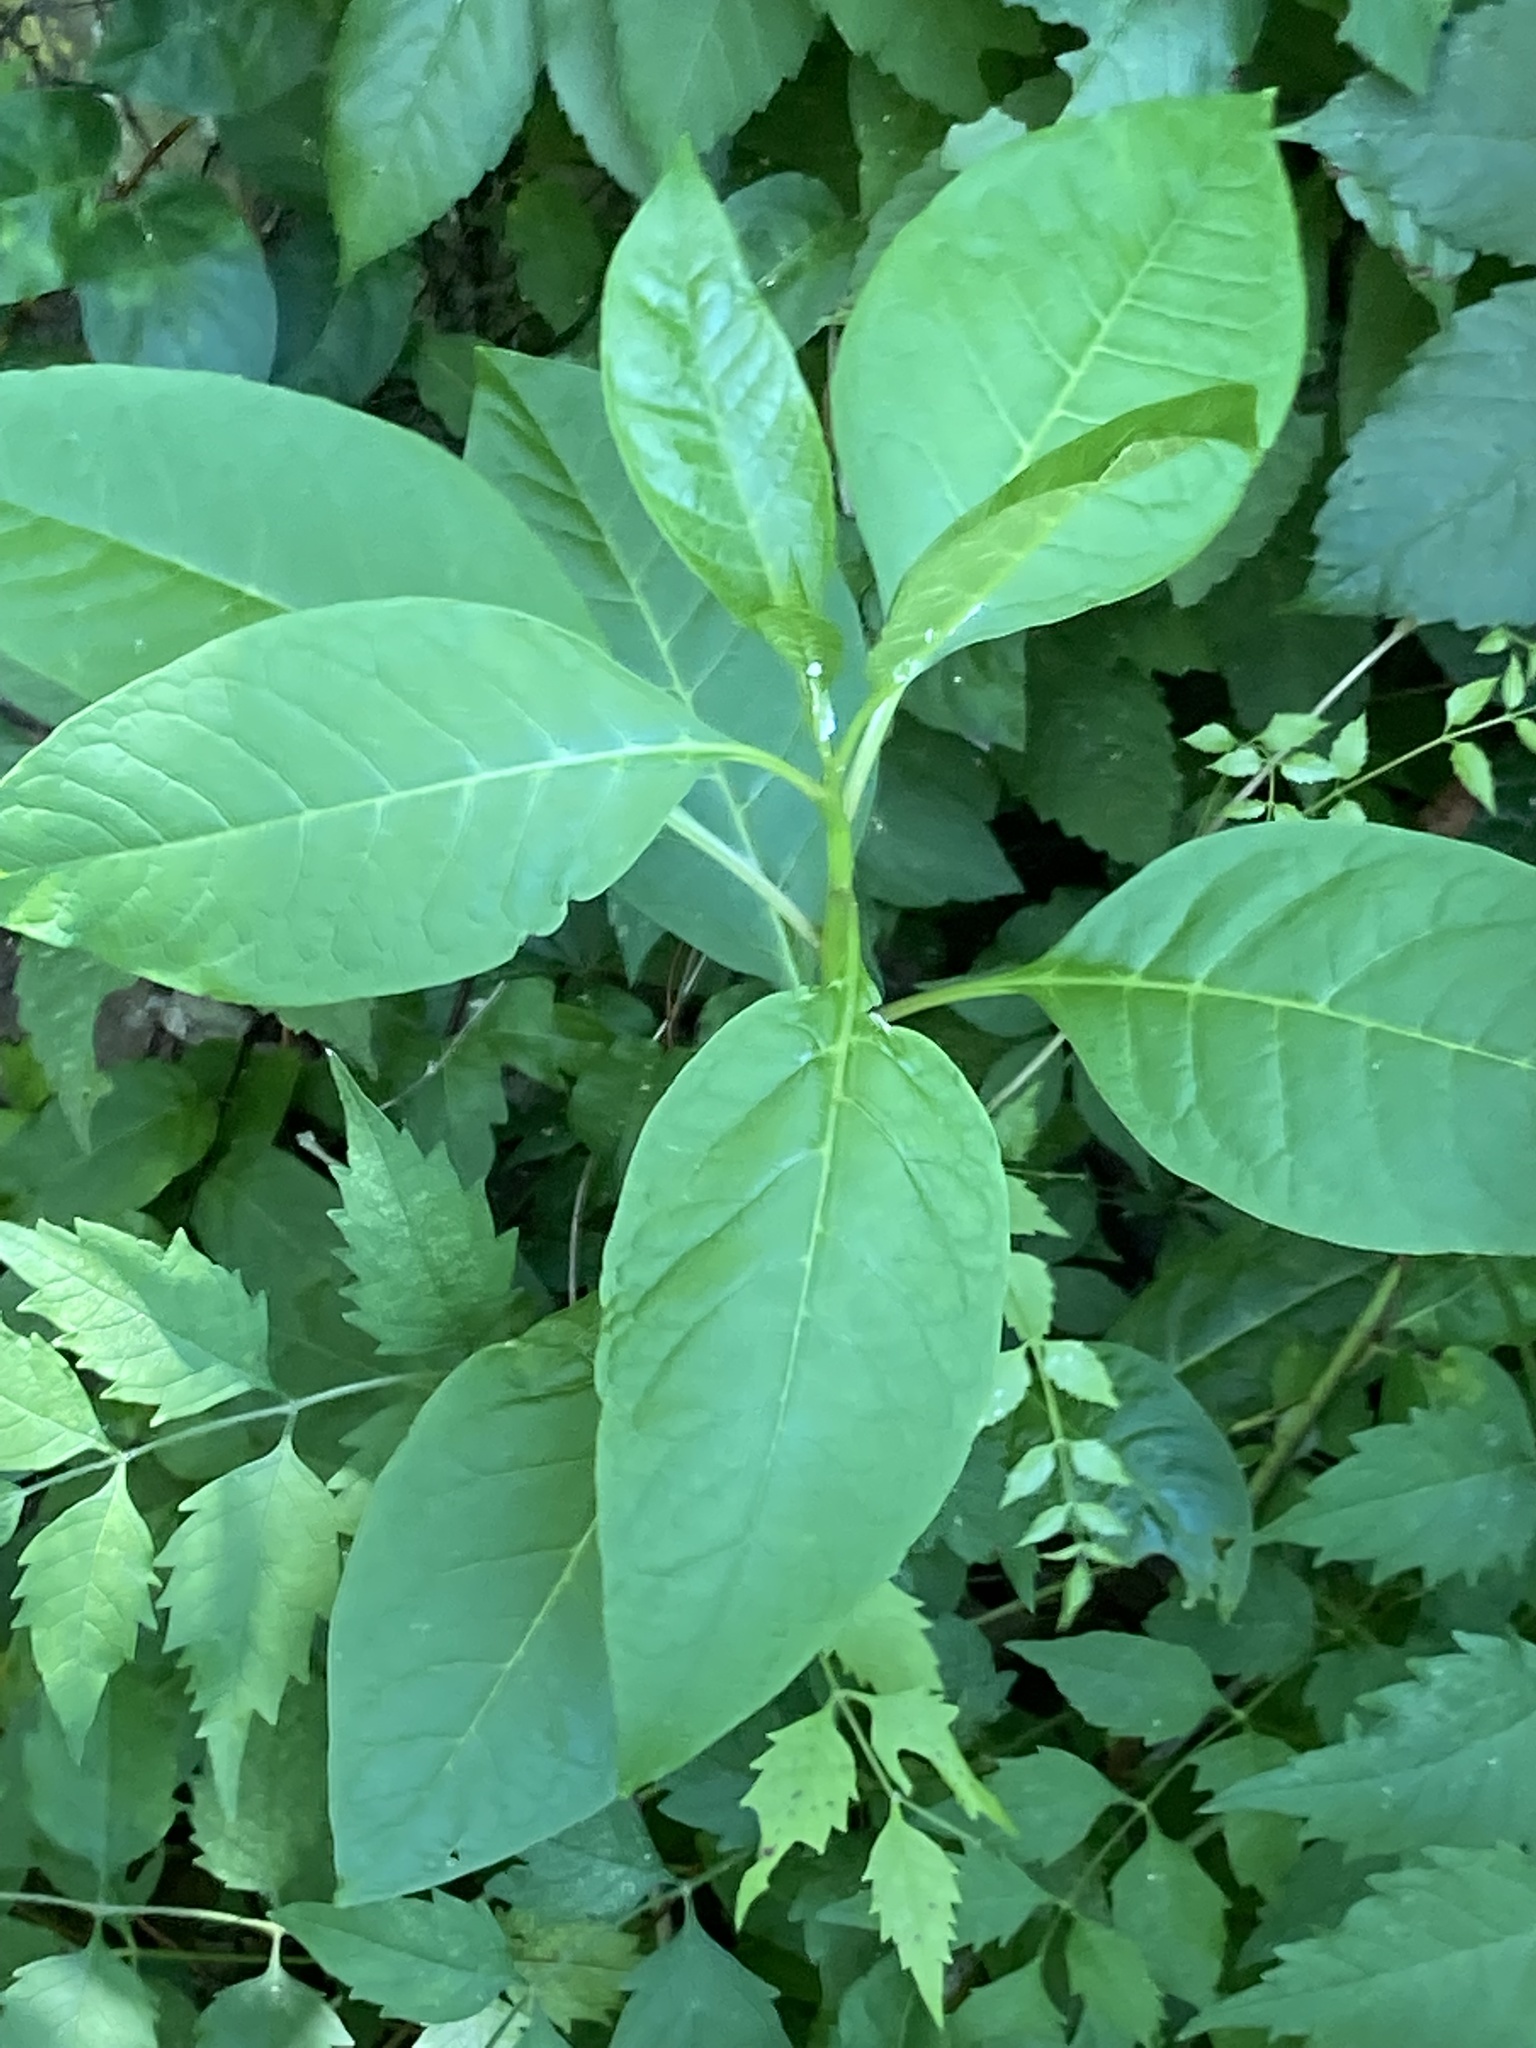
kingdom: Plantae
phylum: Tracheophyta
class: Magnoliopsida
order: Caryophyllales
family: Phytolaccaceae
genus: Phytolacca
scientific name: Phytolacca americana
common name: American pokeweed
